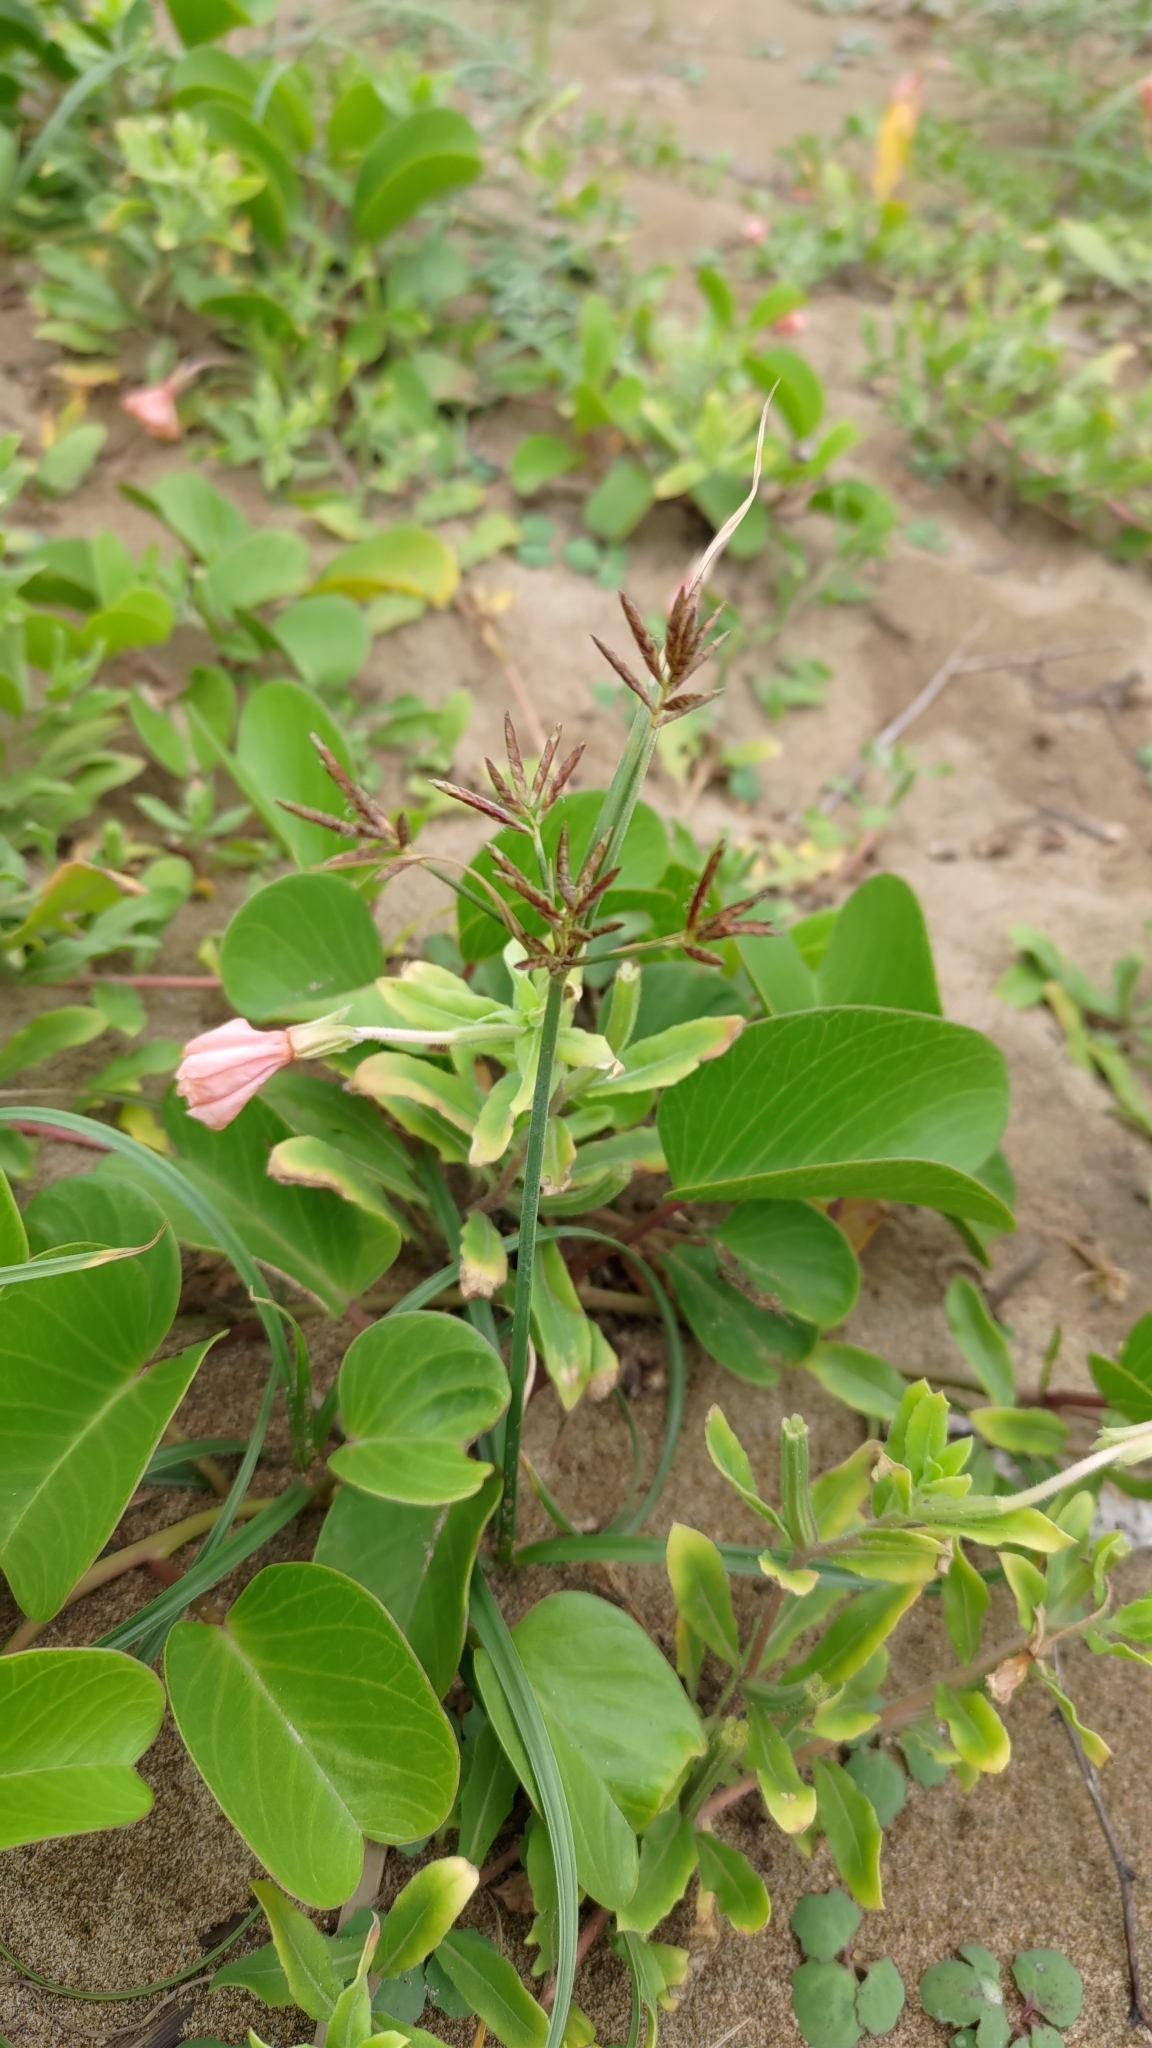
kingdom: Plantae
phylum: Tracheophyta
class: Liliopsida
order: Poales
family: Cyperaceae
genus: Cyperus
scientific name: Cyperus rotundus
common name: Nutgrass
